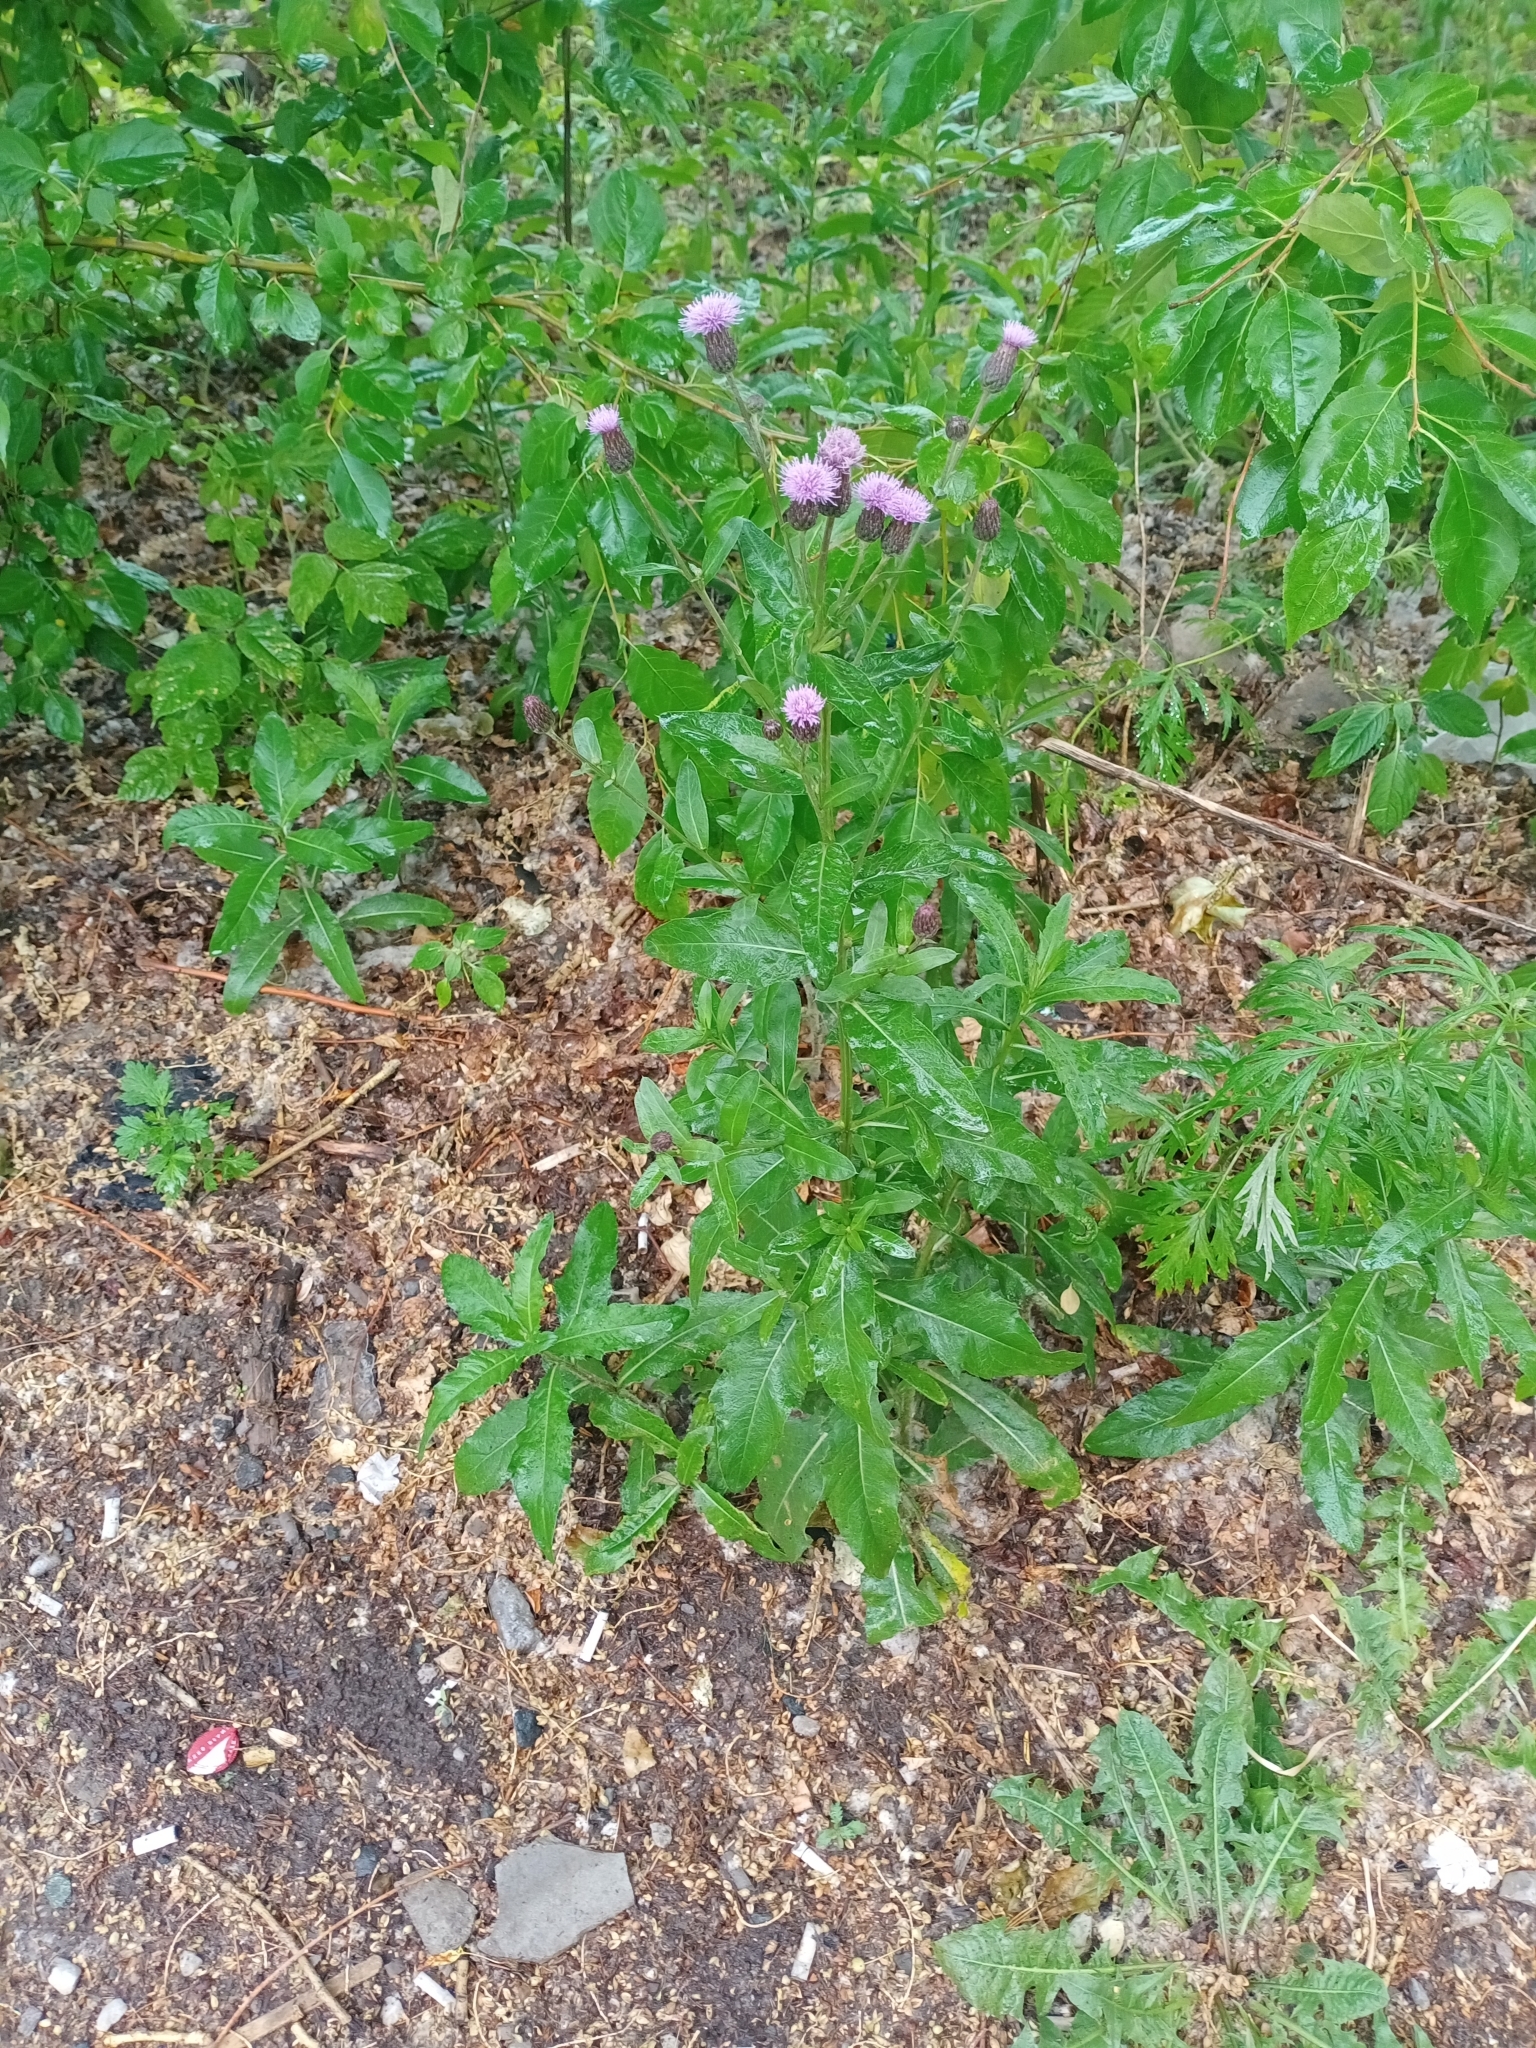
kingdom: Plantae
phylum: Tracheophyta
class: Magnoliopsida
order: Asterales
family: Asteraceae
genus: Cirsium
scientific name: Cirsium arvense
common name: Creeping thistle
